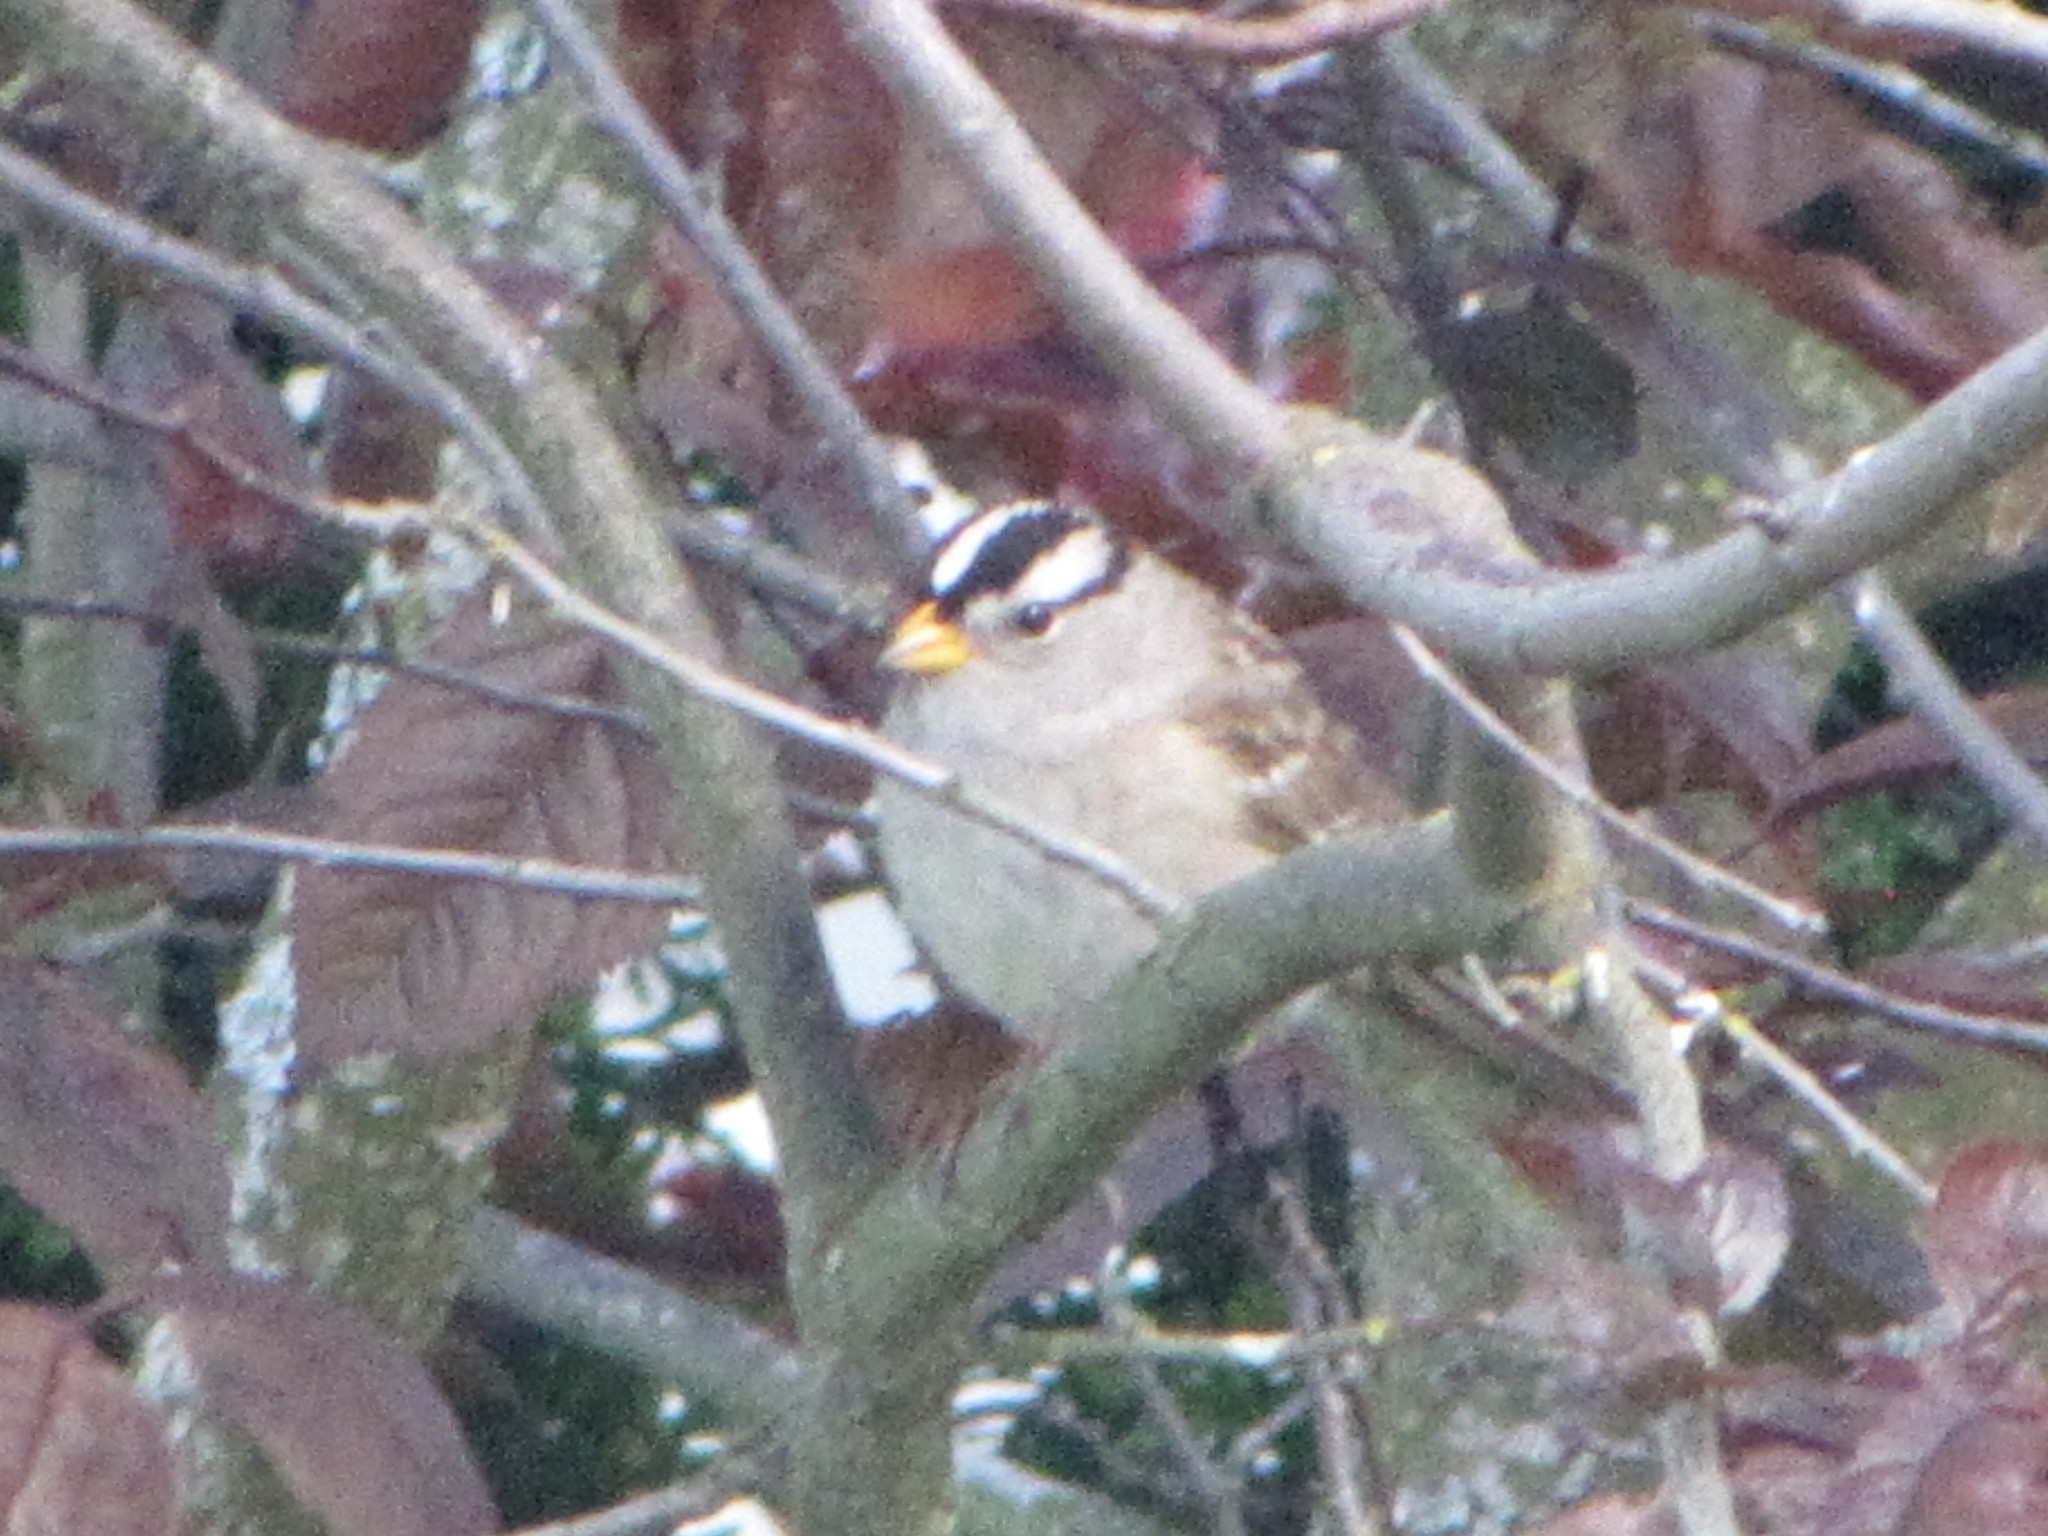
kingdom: Animalia
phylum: Chordata
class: Aves
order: Passeriformes
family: Passerellidae
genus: Zonotrichia
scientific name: Zonotrichia leucophrys
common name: White-crowned sparrow
